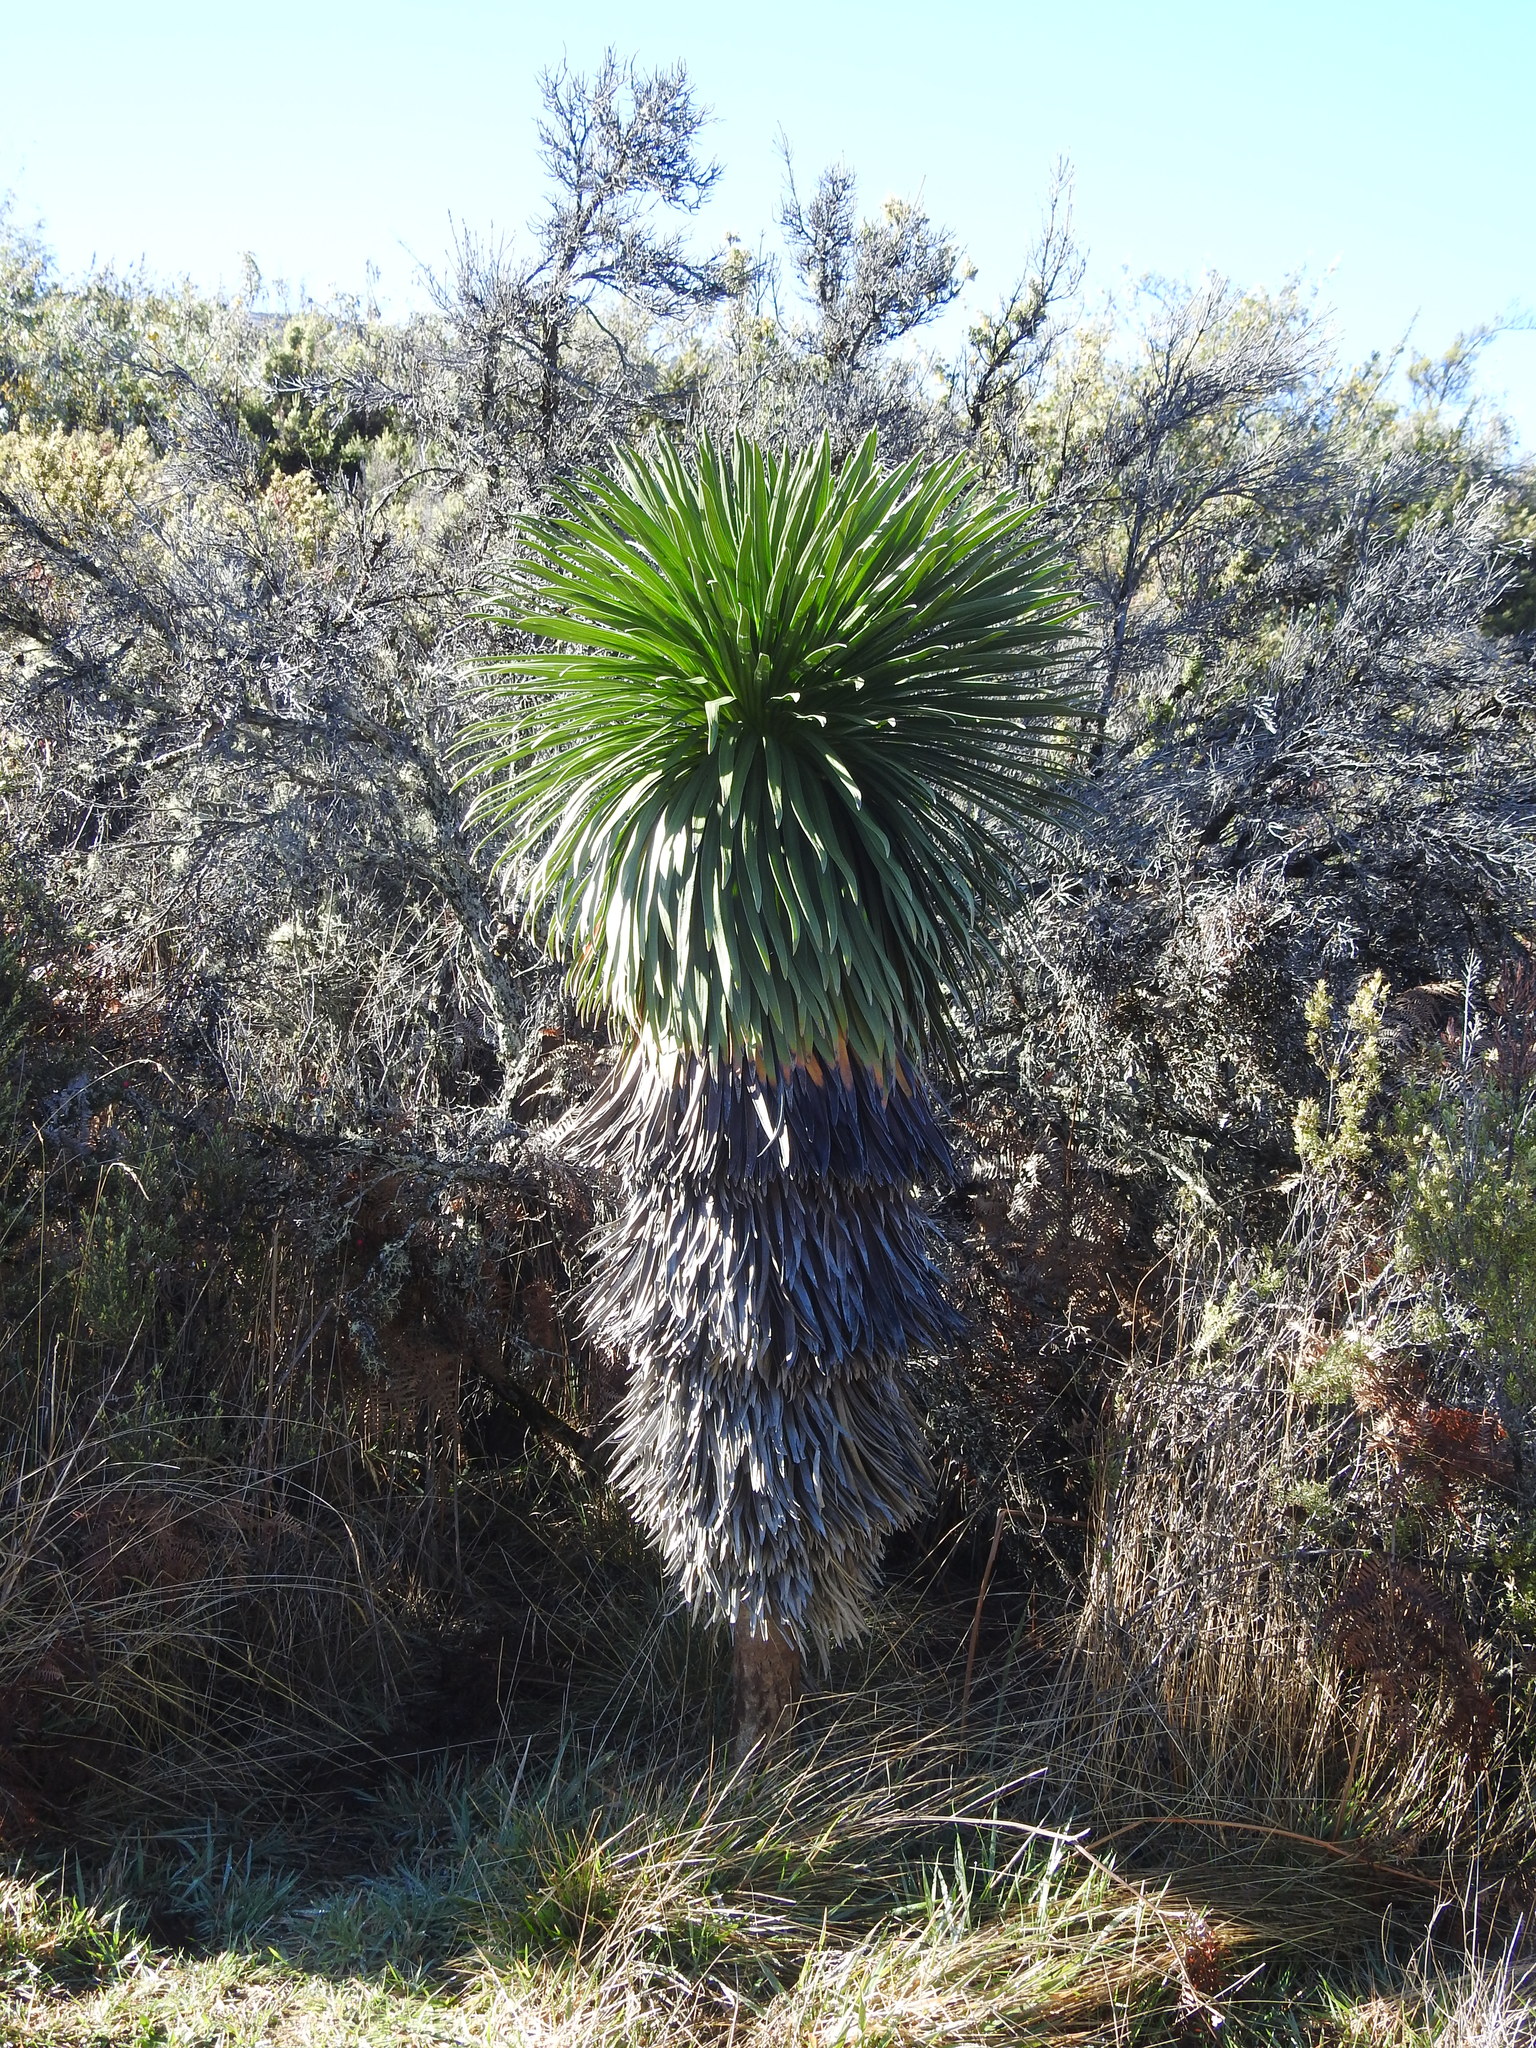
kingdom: Plantae
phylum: Tracheophyta
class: Magnoliopsida
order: Asterales
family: Asteraceae
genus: Argyroxiphium
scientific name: Argyroxiphium grayanum
